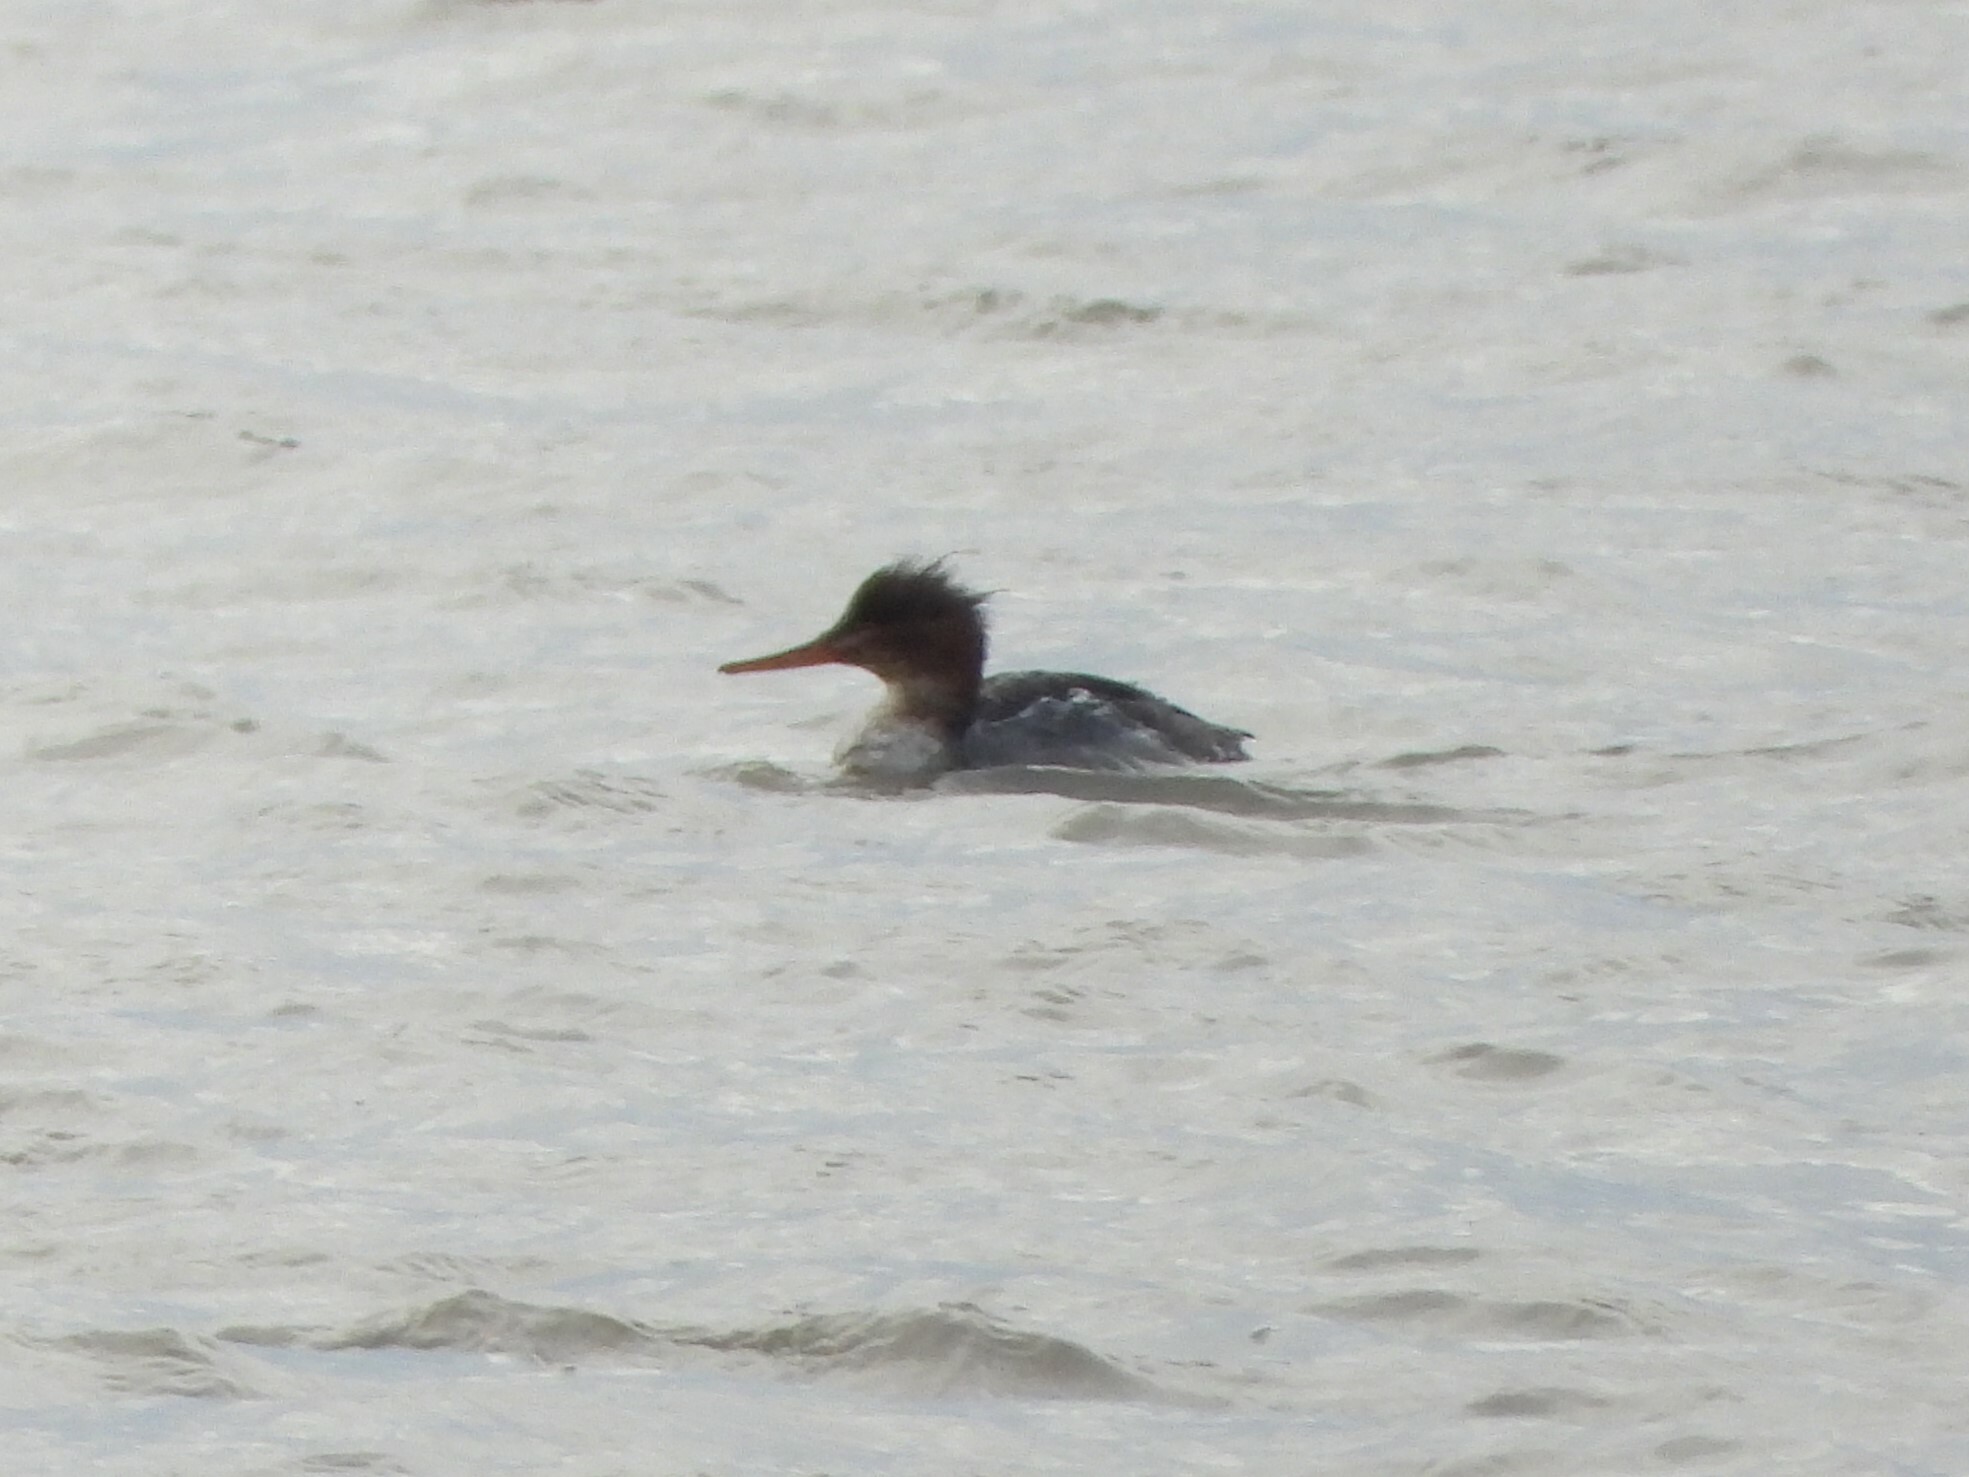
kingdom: Animalia
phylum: Chordata
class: Aves
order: Anseriformes
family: Anatidae
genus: Mergus
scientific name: Mergus serrator
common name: Red-breasted merganser
